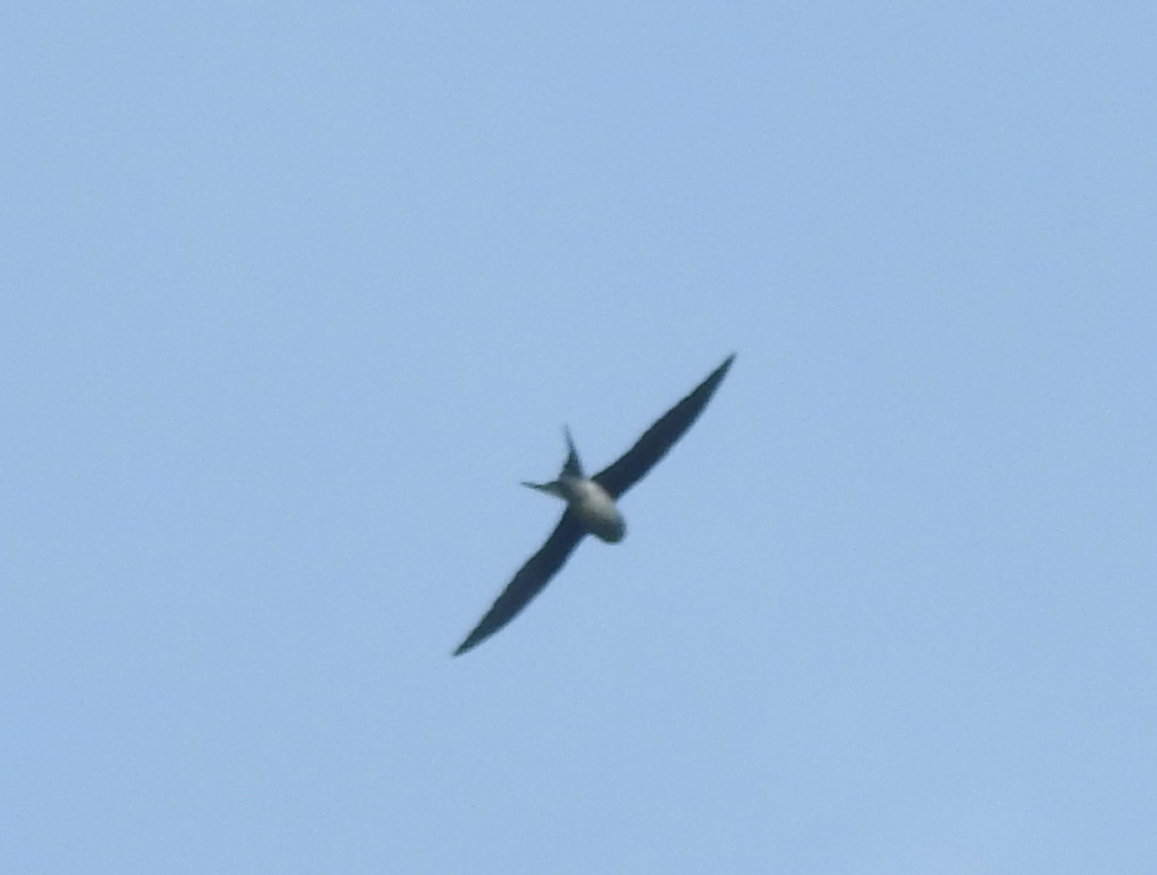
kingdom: Animalia
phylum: Chordata
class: Aves
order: Apodiformes
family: Hemiprocnidae
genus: Hemiprocne
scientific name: Hemiprocne longipennis
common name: Grey-rumped treeswift
